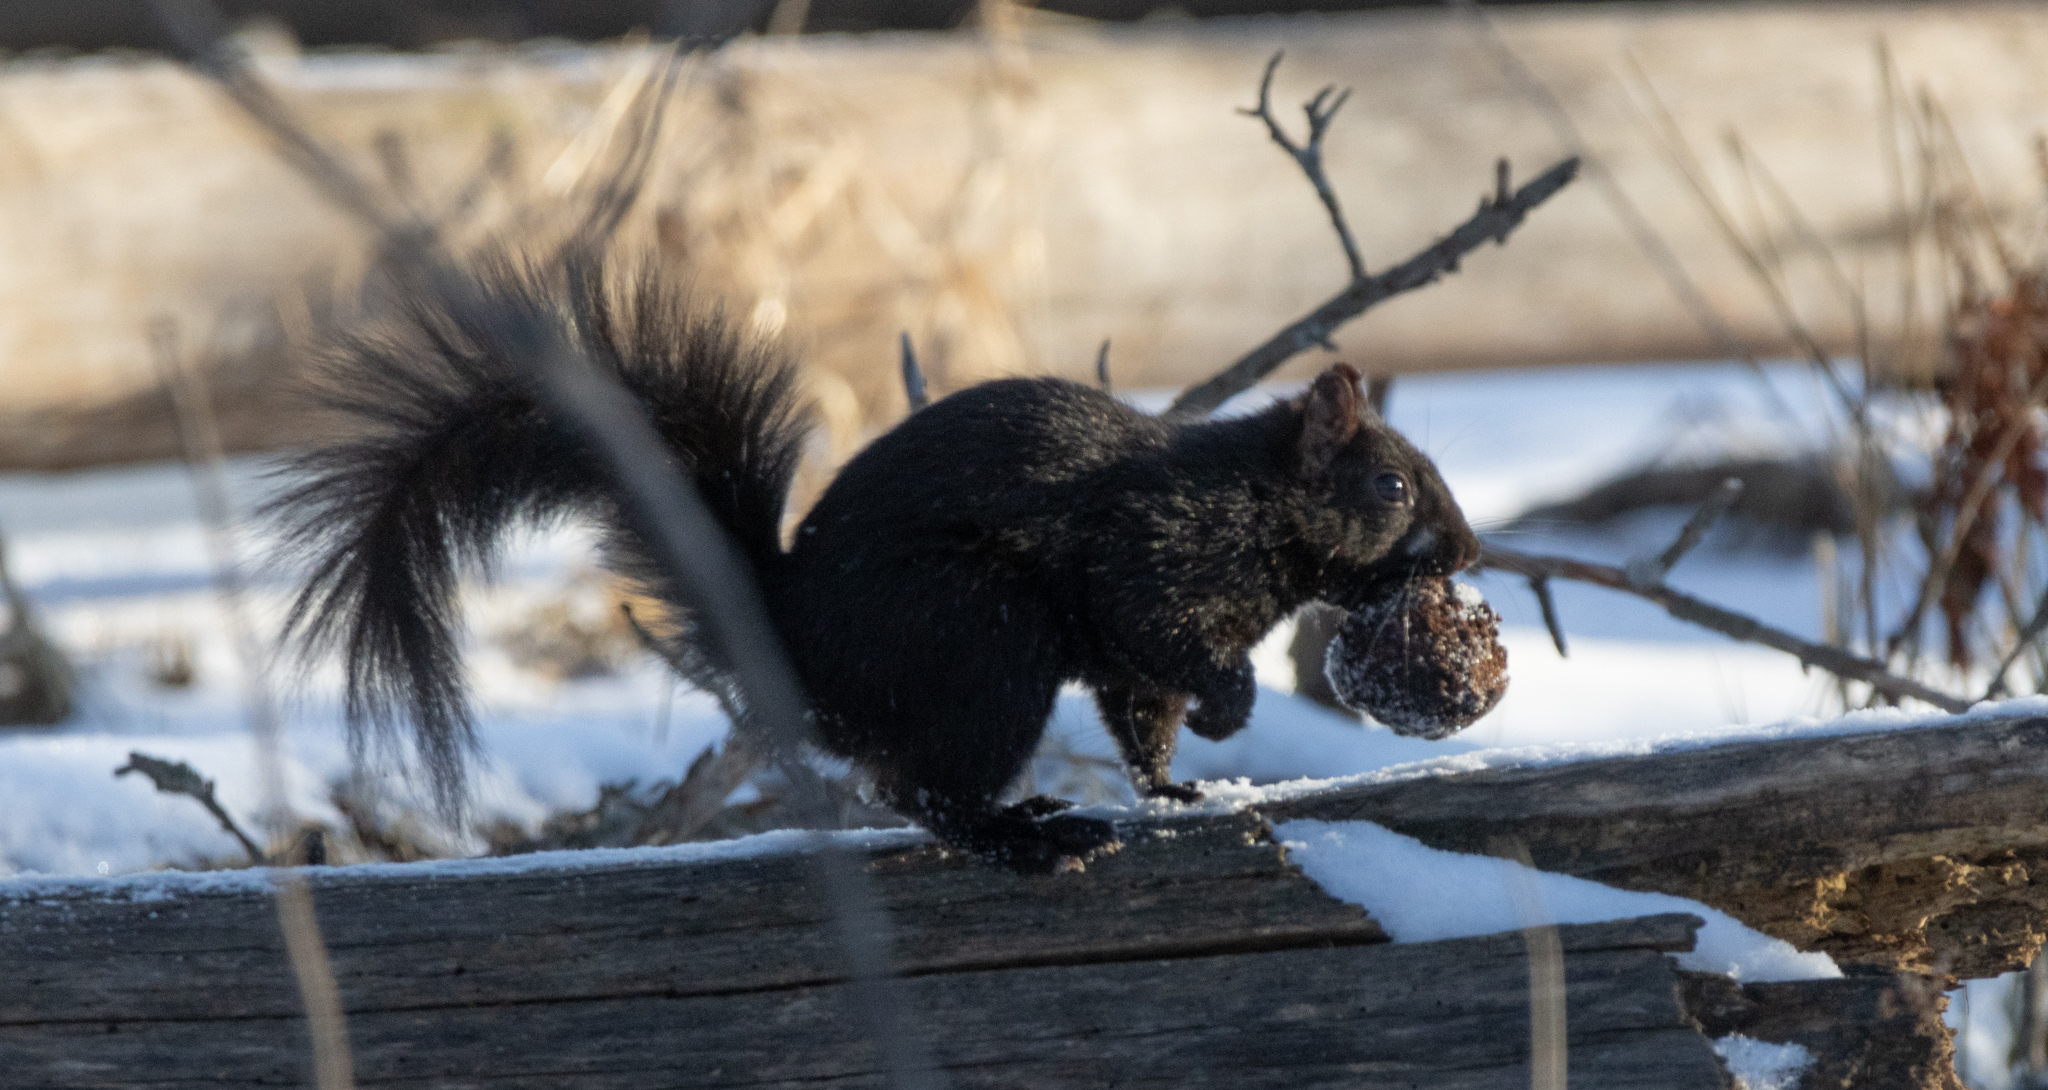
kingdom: Animalia
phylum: Chordata
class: Mammalia
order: Rodentia
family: Sciuridae
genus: Sciurus
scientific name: Sciurus carolinensis
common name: Eastern gray squirrel
